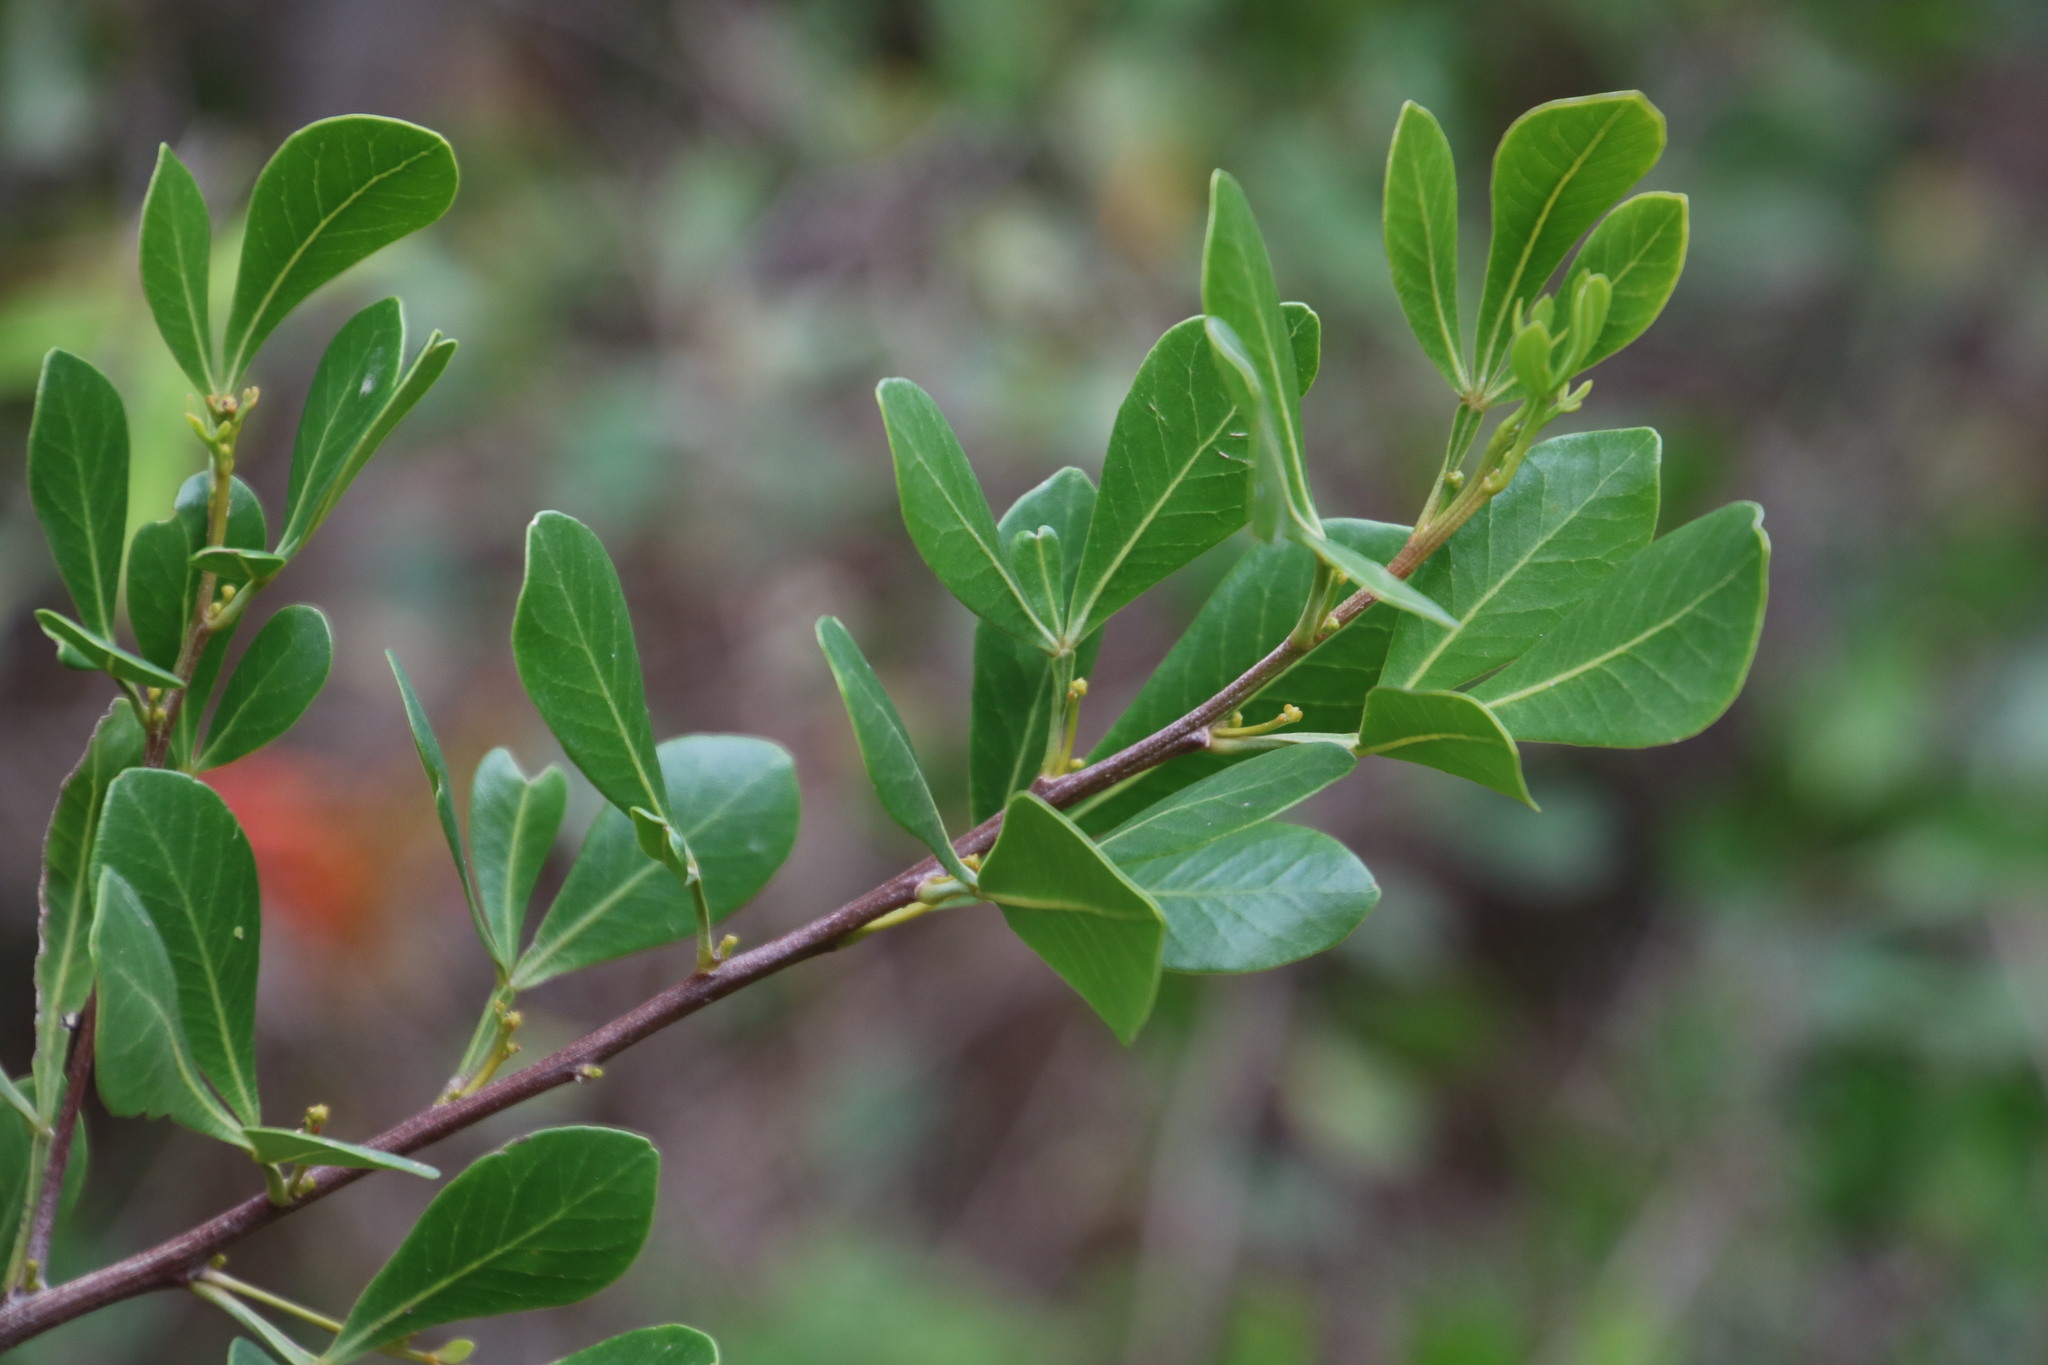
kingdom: Plantae
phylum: Tracheophyta
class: Magnoliopsida
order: Sapindales
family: Anacardiaceae
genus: Searsia
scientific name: Searsia lucida
